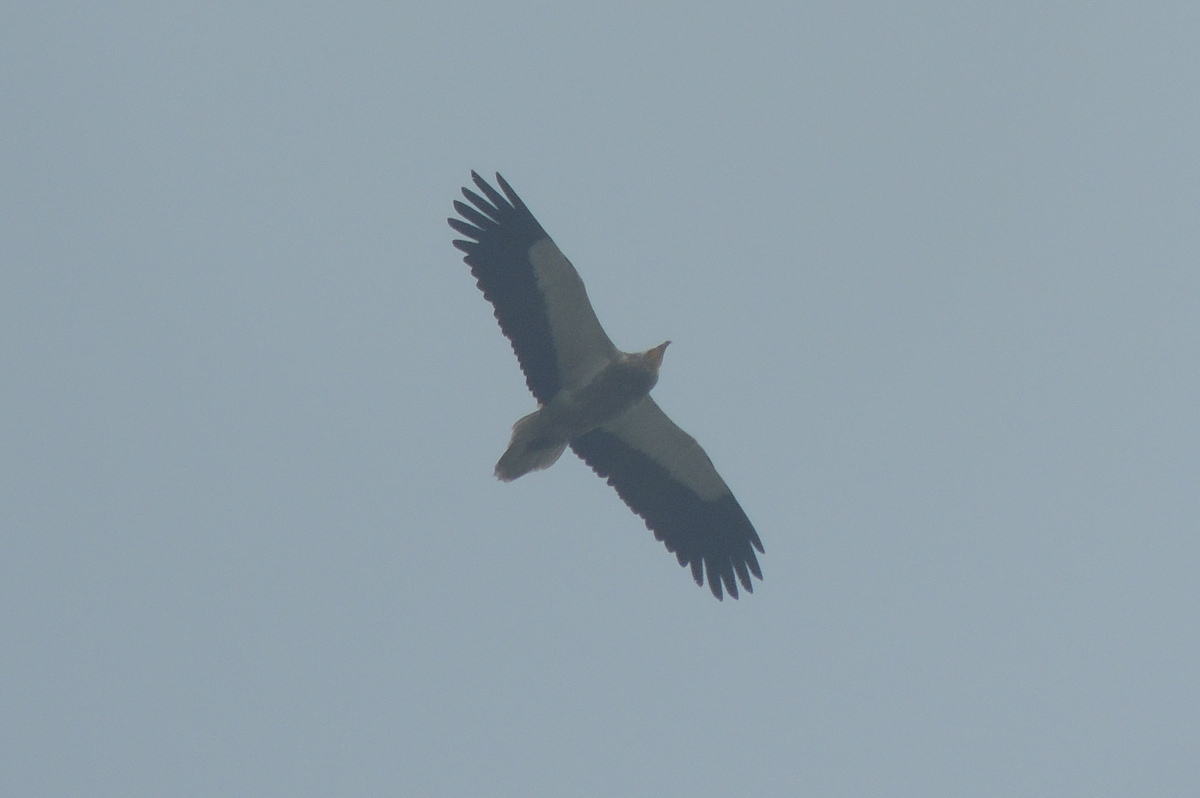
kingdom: Animalia
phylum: Chordata
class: Aves
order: Accipitriformes
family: Accipitridae
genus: Neophron
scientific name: Neophron percnopterus
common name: Egyptian vulture
